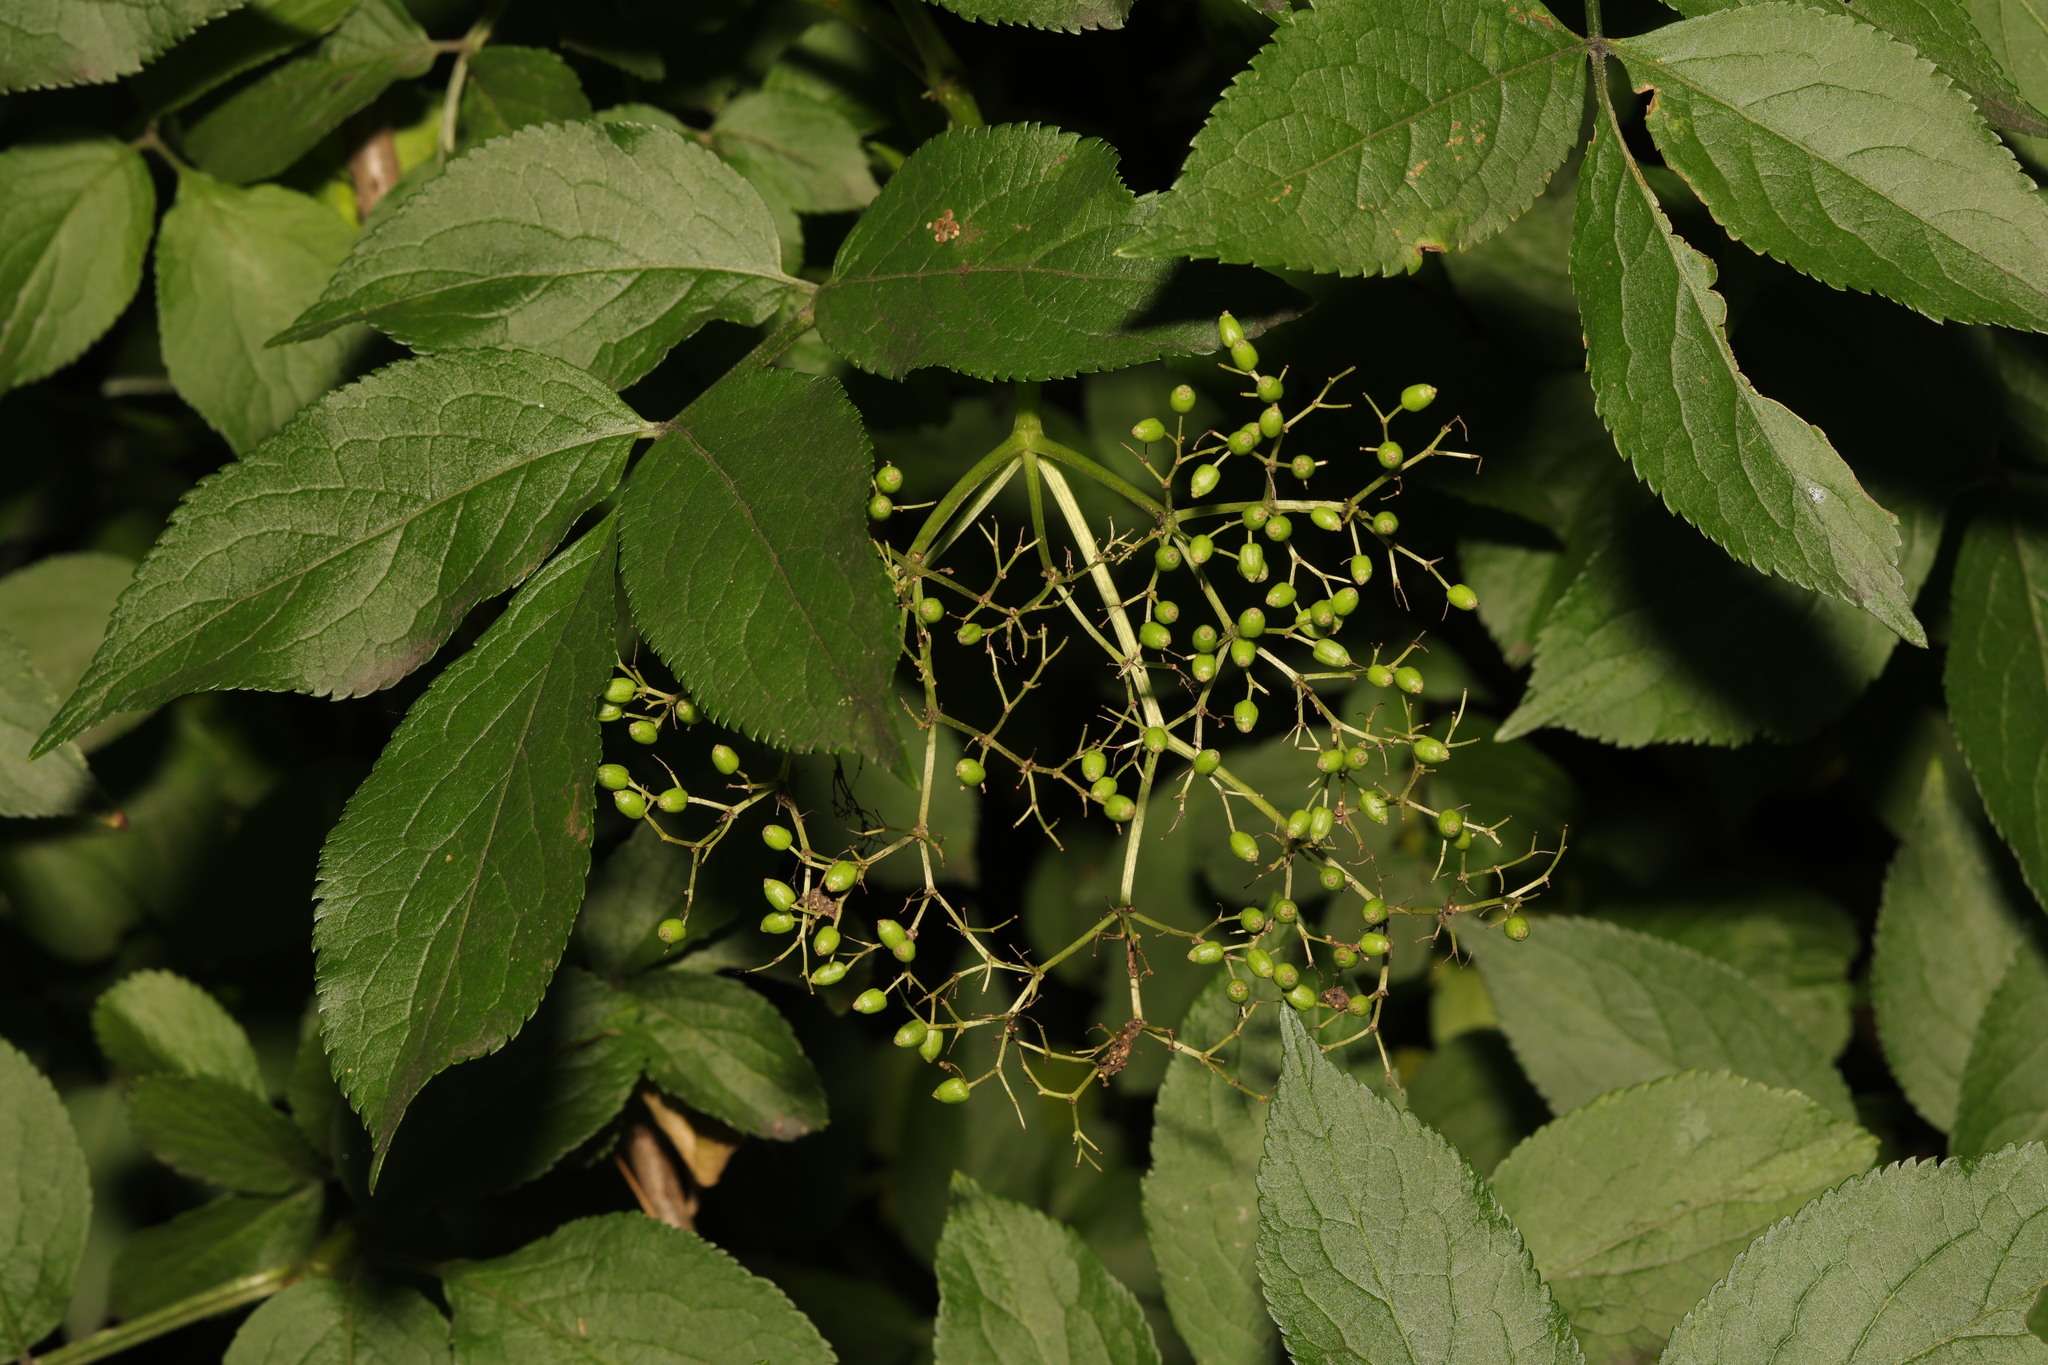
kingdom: Plantae
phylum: Tracheophyta
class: Magnoliopsida
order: Dipsacales
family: Viburnaceae
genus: Sambucus
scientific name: Sambucus nigra
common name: Elder
